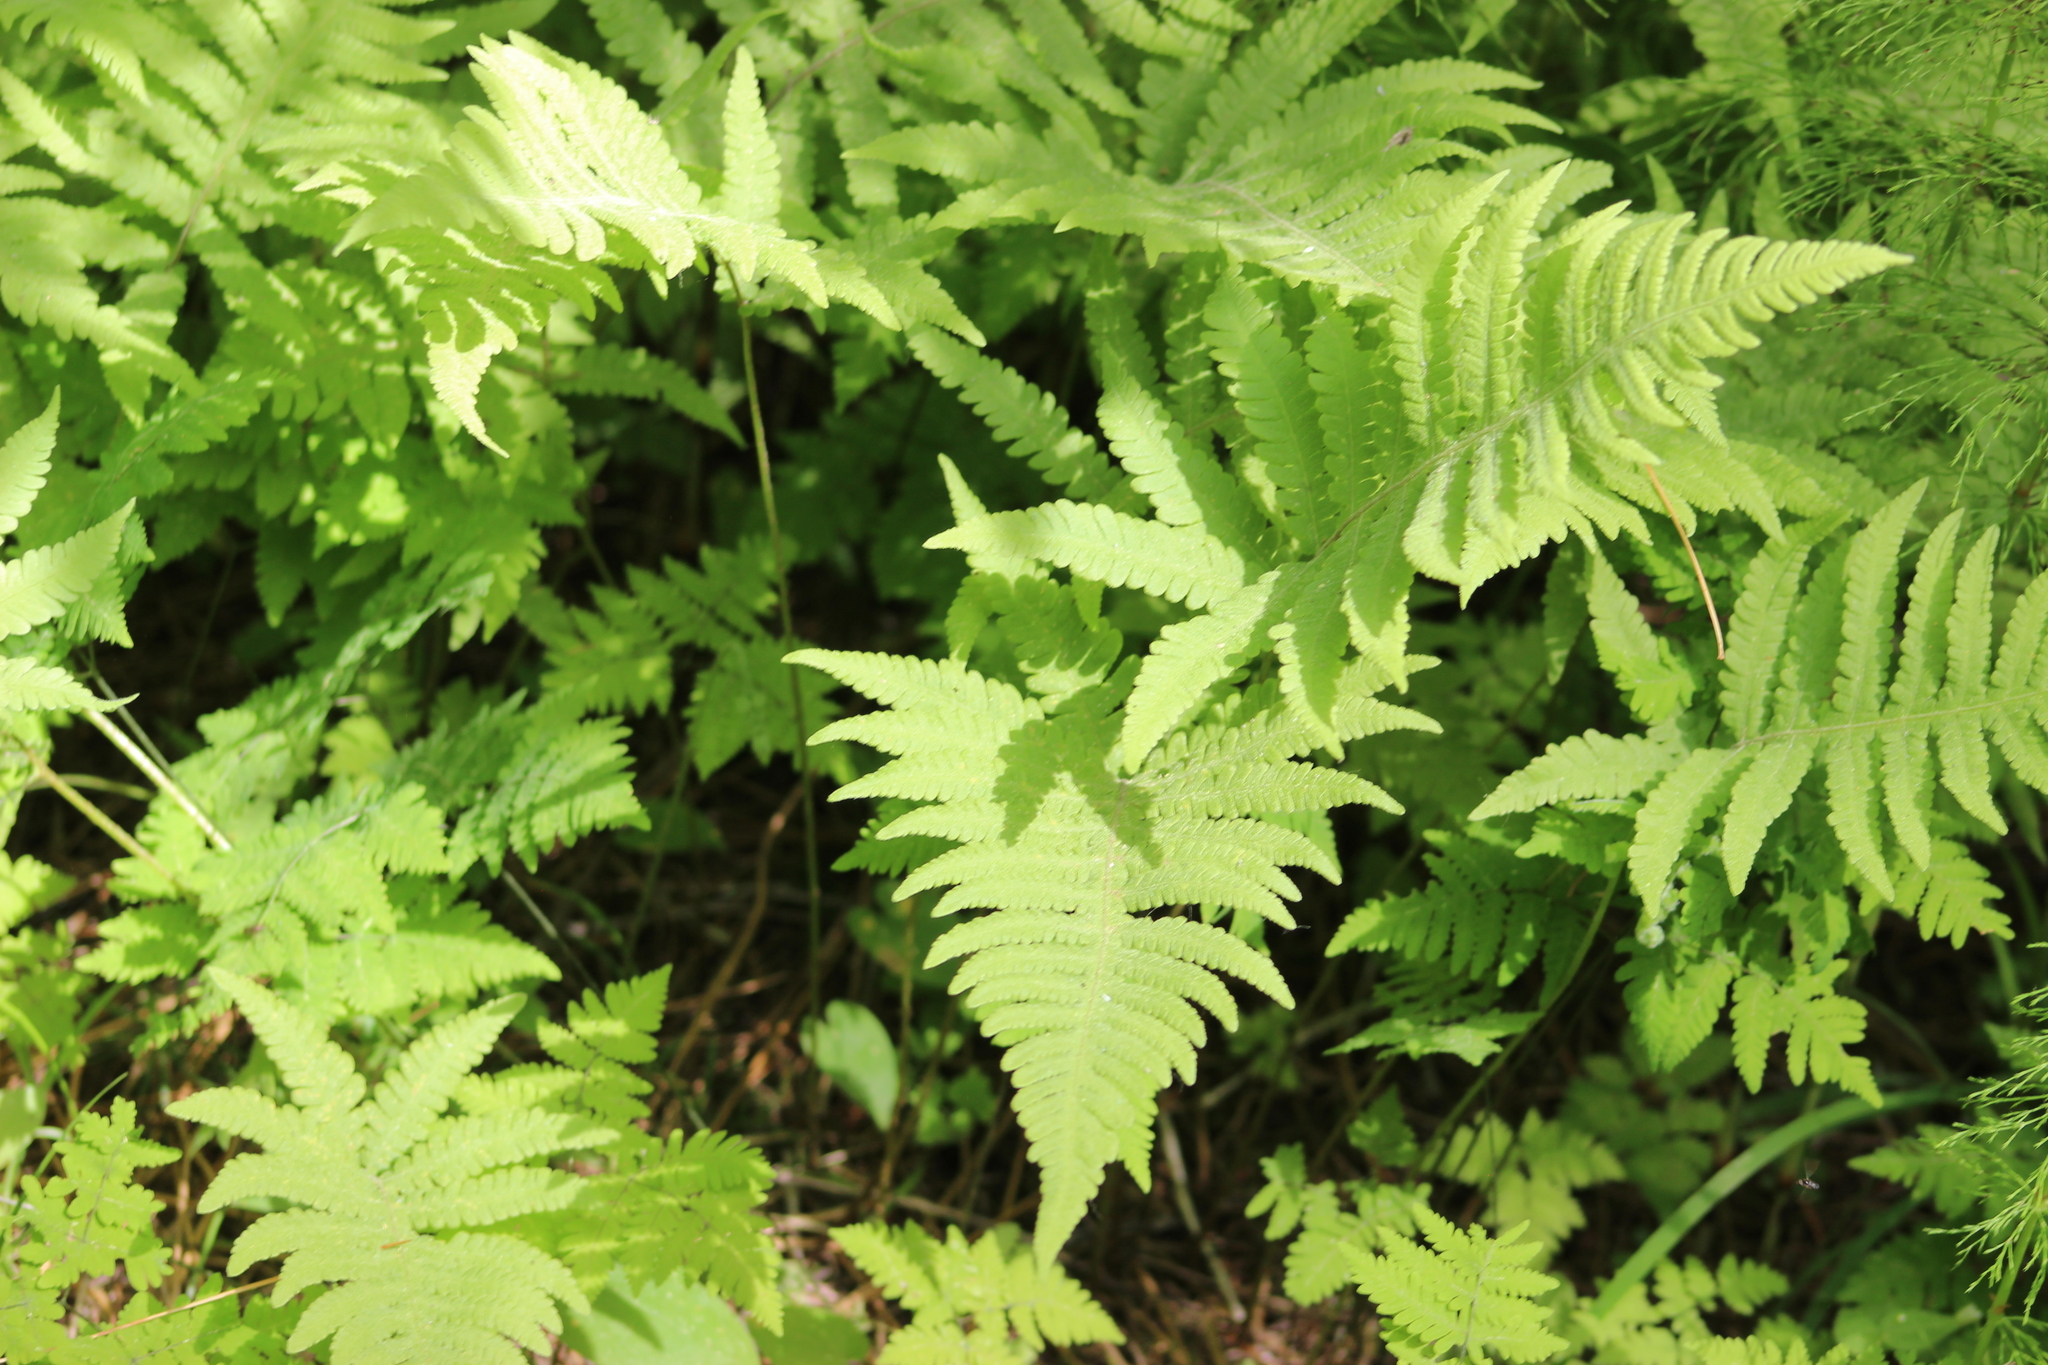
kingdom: Plantae
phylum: Tracheophyta
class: Polypodiopsida
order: Polypodiales
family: Thelypteridaceae
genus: Phegopteris
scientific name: Phegopteris connectilis
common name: Beech fern
